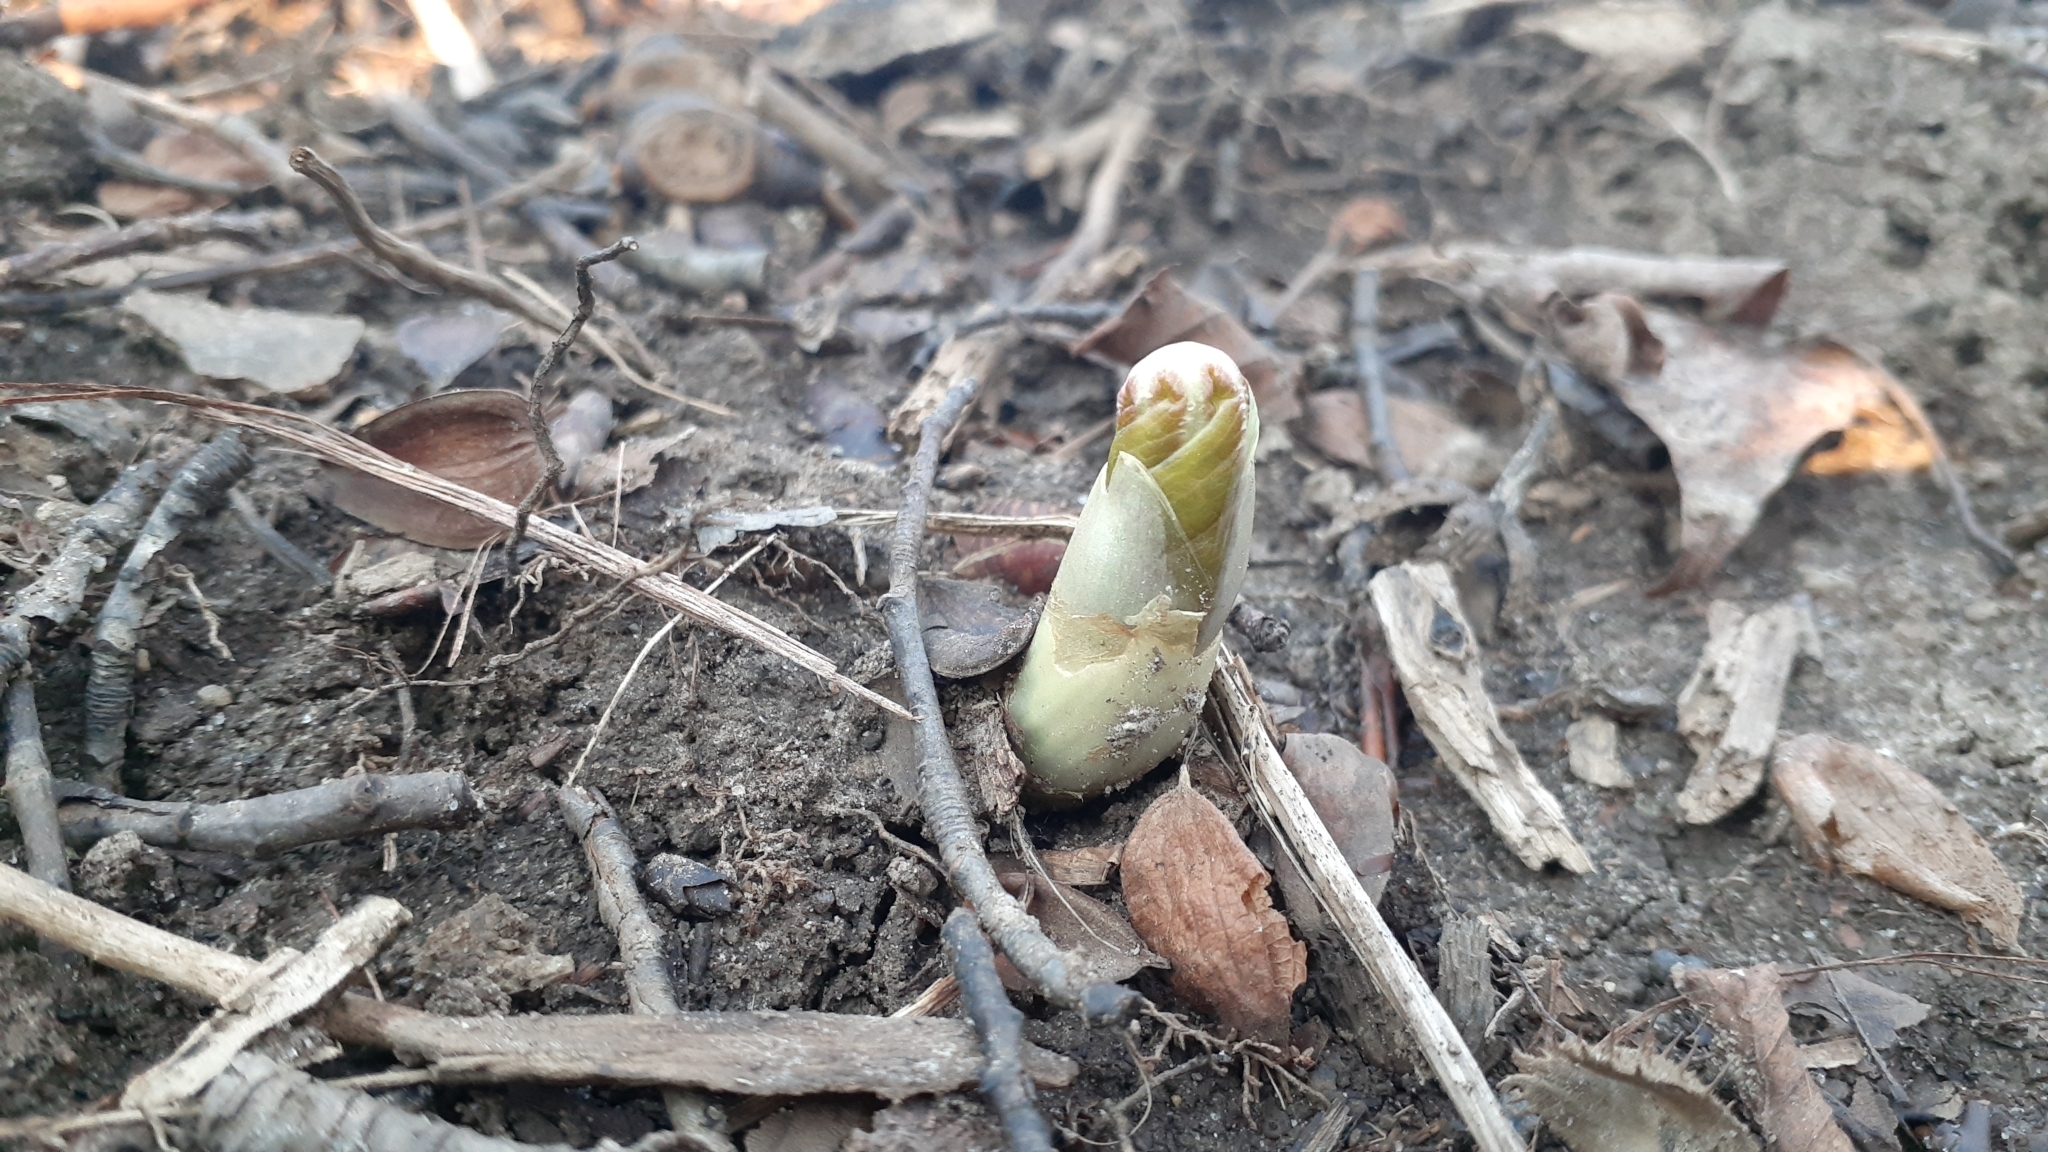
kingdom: Plantae
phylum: Tracheophyta
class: Magnoliopsida
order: Ranunculales
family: Berberidaceae
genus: Podophyllum
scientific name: Podophyllum peltatum
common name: Wild mandrake
